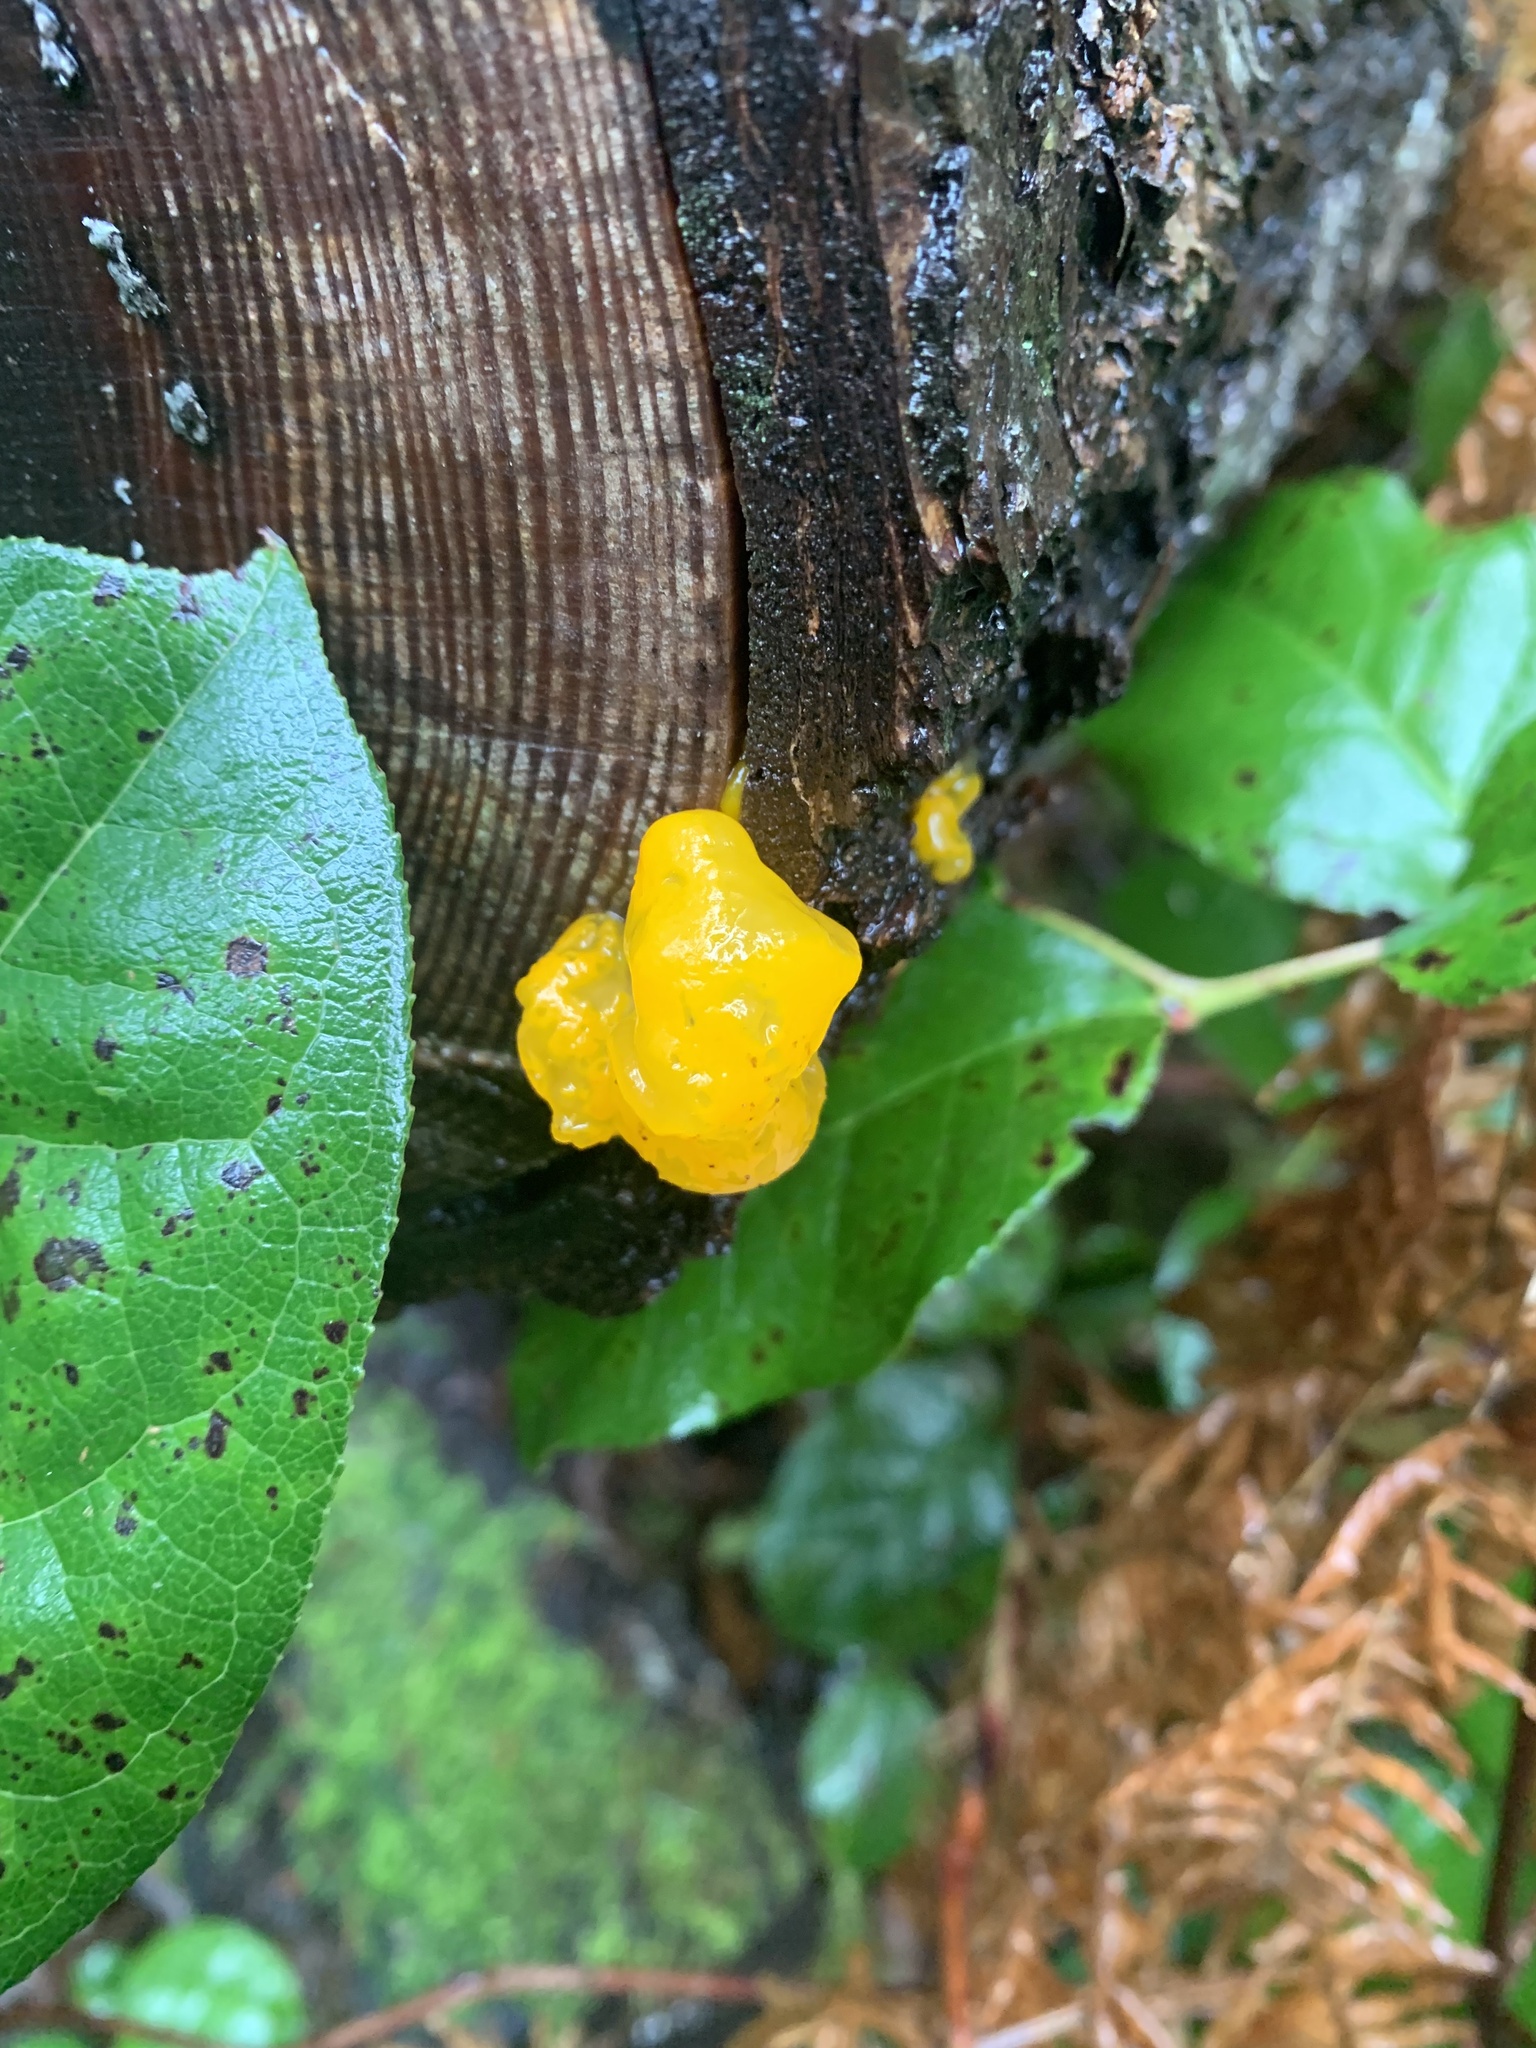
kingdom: Fungi
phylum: Basidiomycota
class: Dacrymycetes
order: Dacrymycetales
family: Dacrymycetaceae
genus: Dacrymyces
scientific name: Dacrymyces chrysospermus
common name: Orange jelly spot
